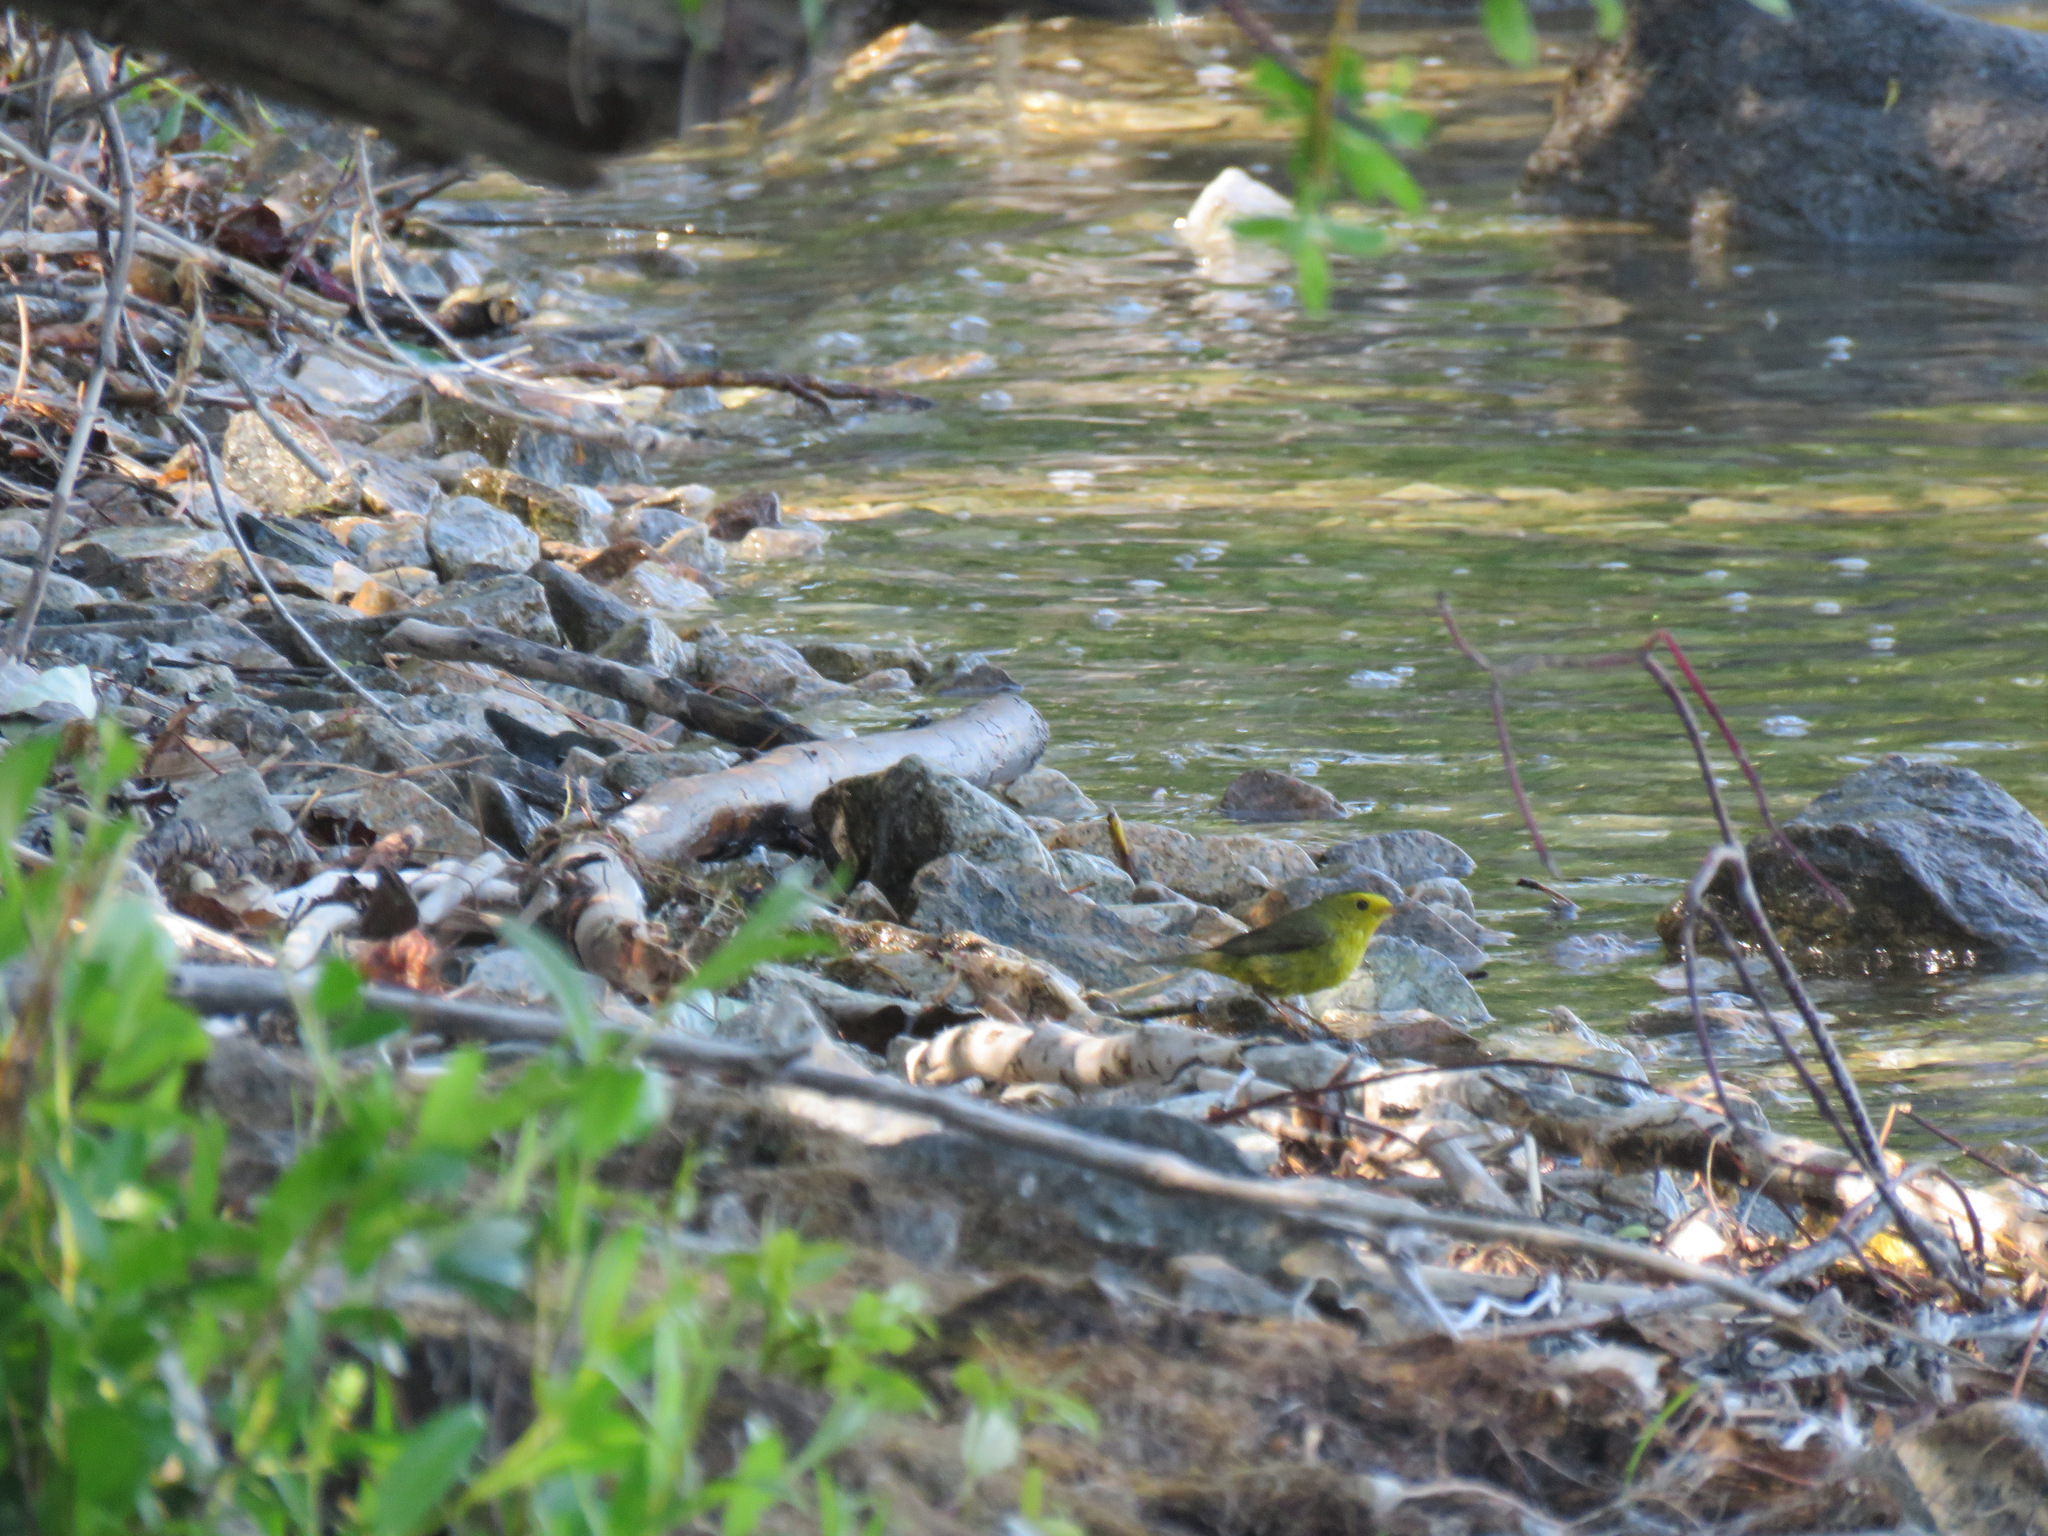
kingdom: Animalia
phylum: Chordata
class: Aves
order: Passeriformes
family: Parulidae
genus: Cardellina
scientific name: Cardellina pusilla
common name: Wilson's warbler
